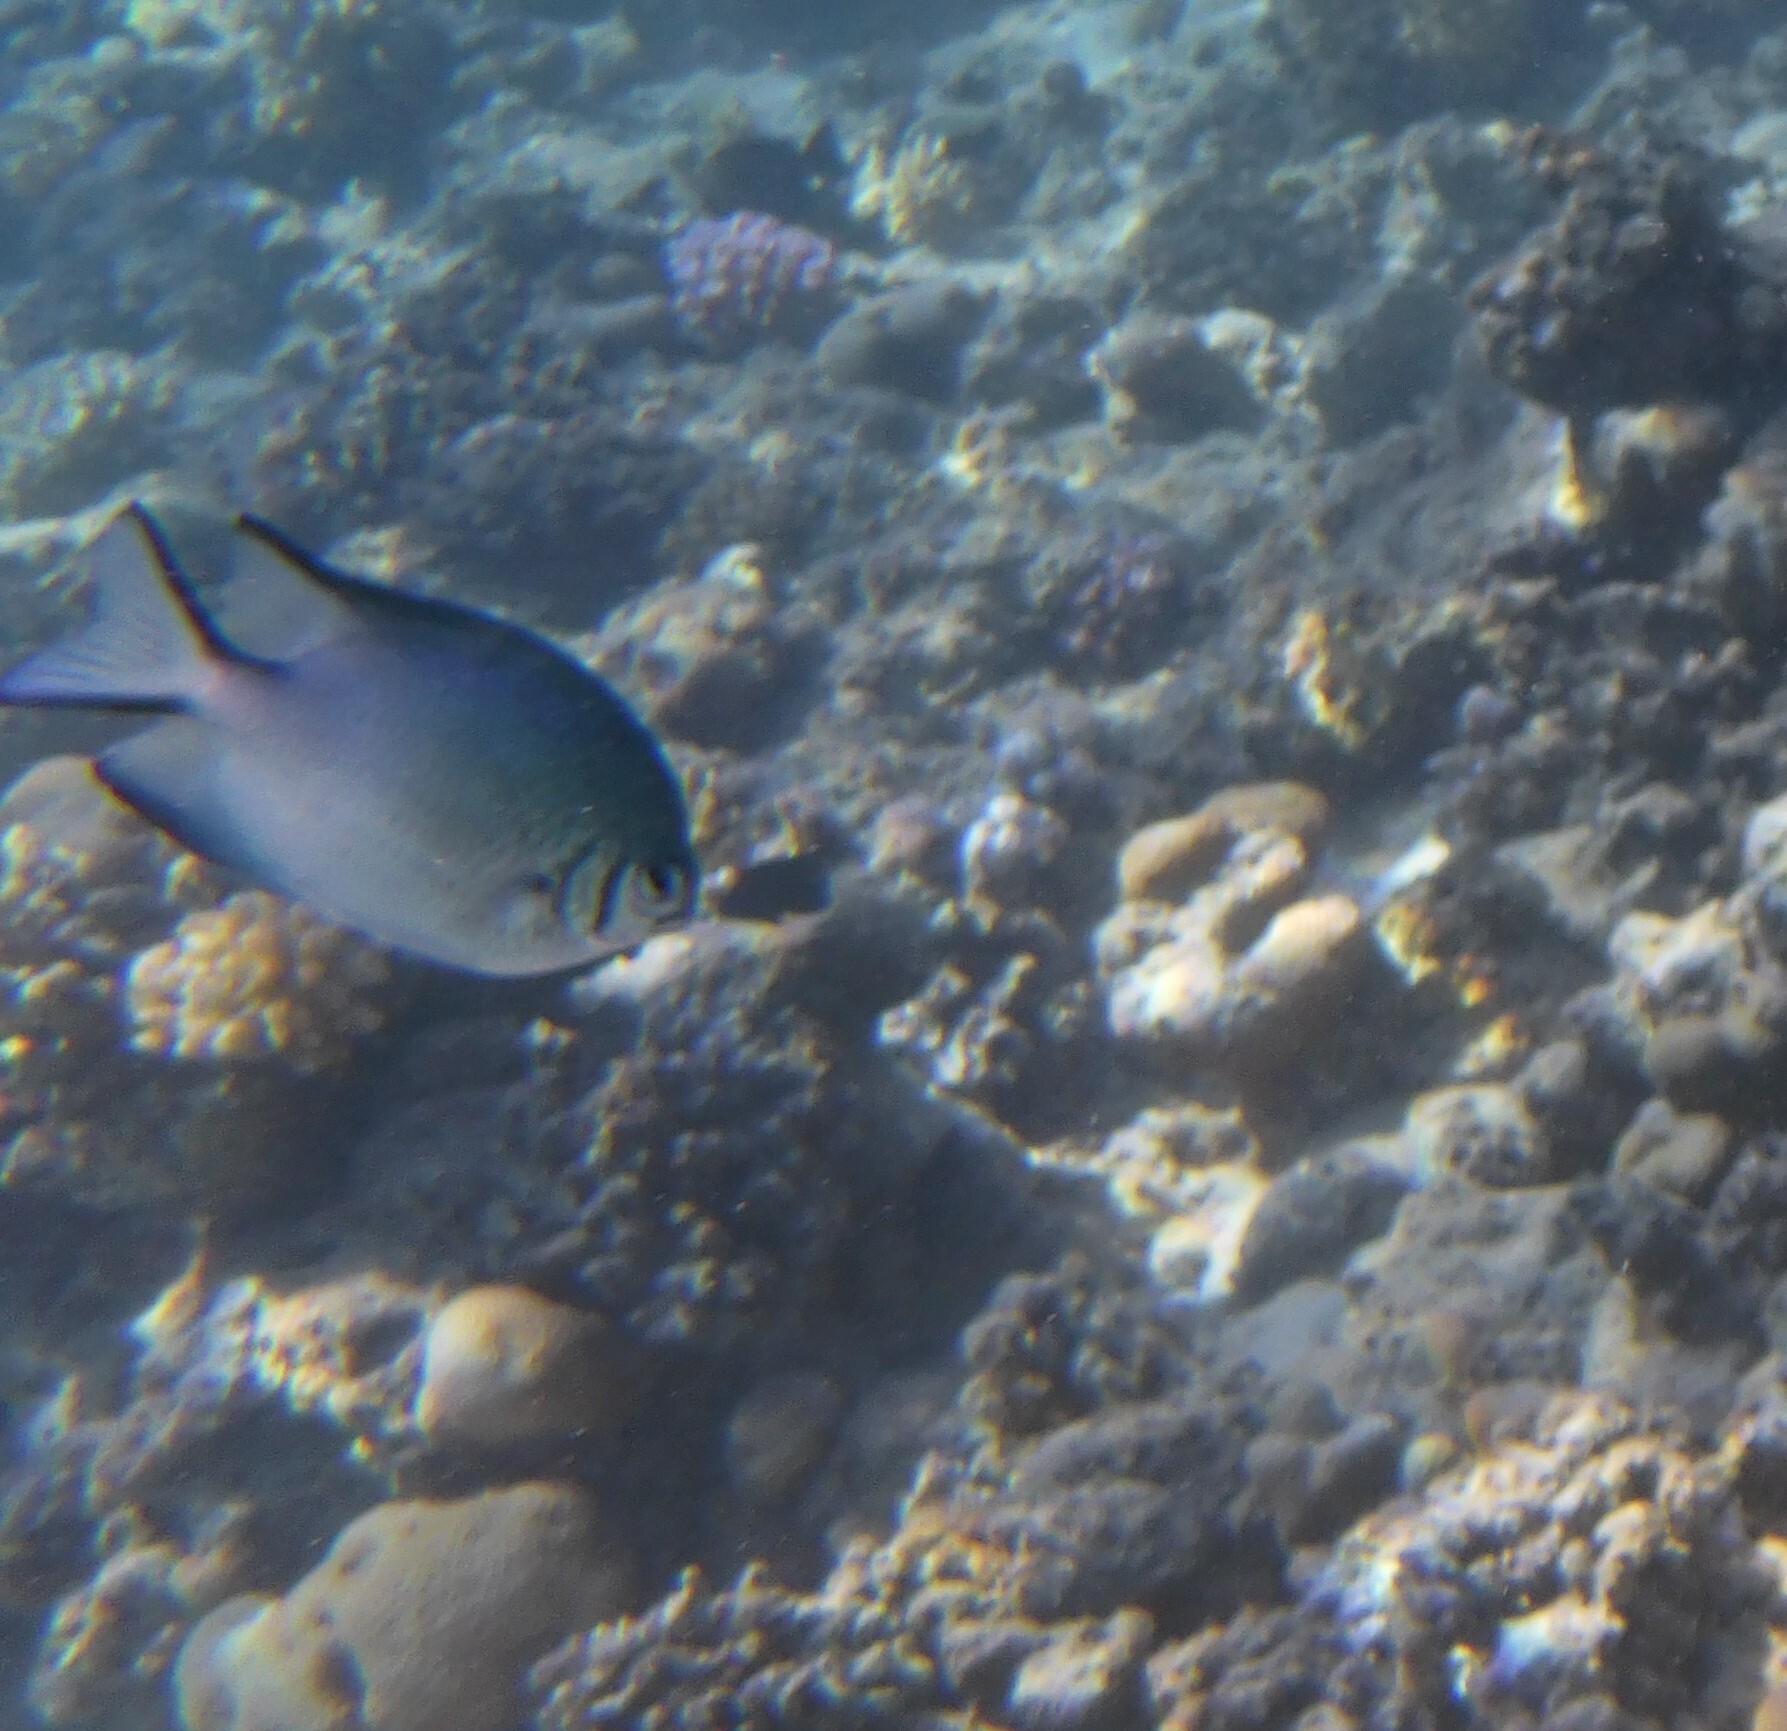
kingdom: Animalia
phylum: Chordata
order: Perciformes
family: Pomacentridae
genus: Amblyglyphidodon
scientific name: Amblyglyphidodon indicus
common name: Maldives damselfish
